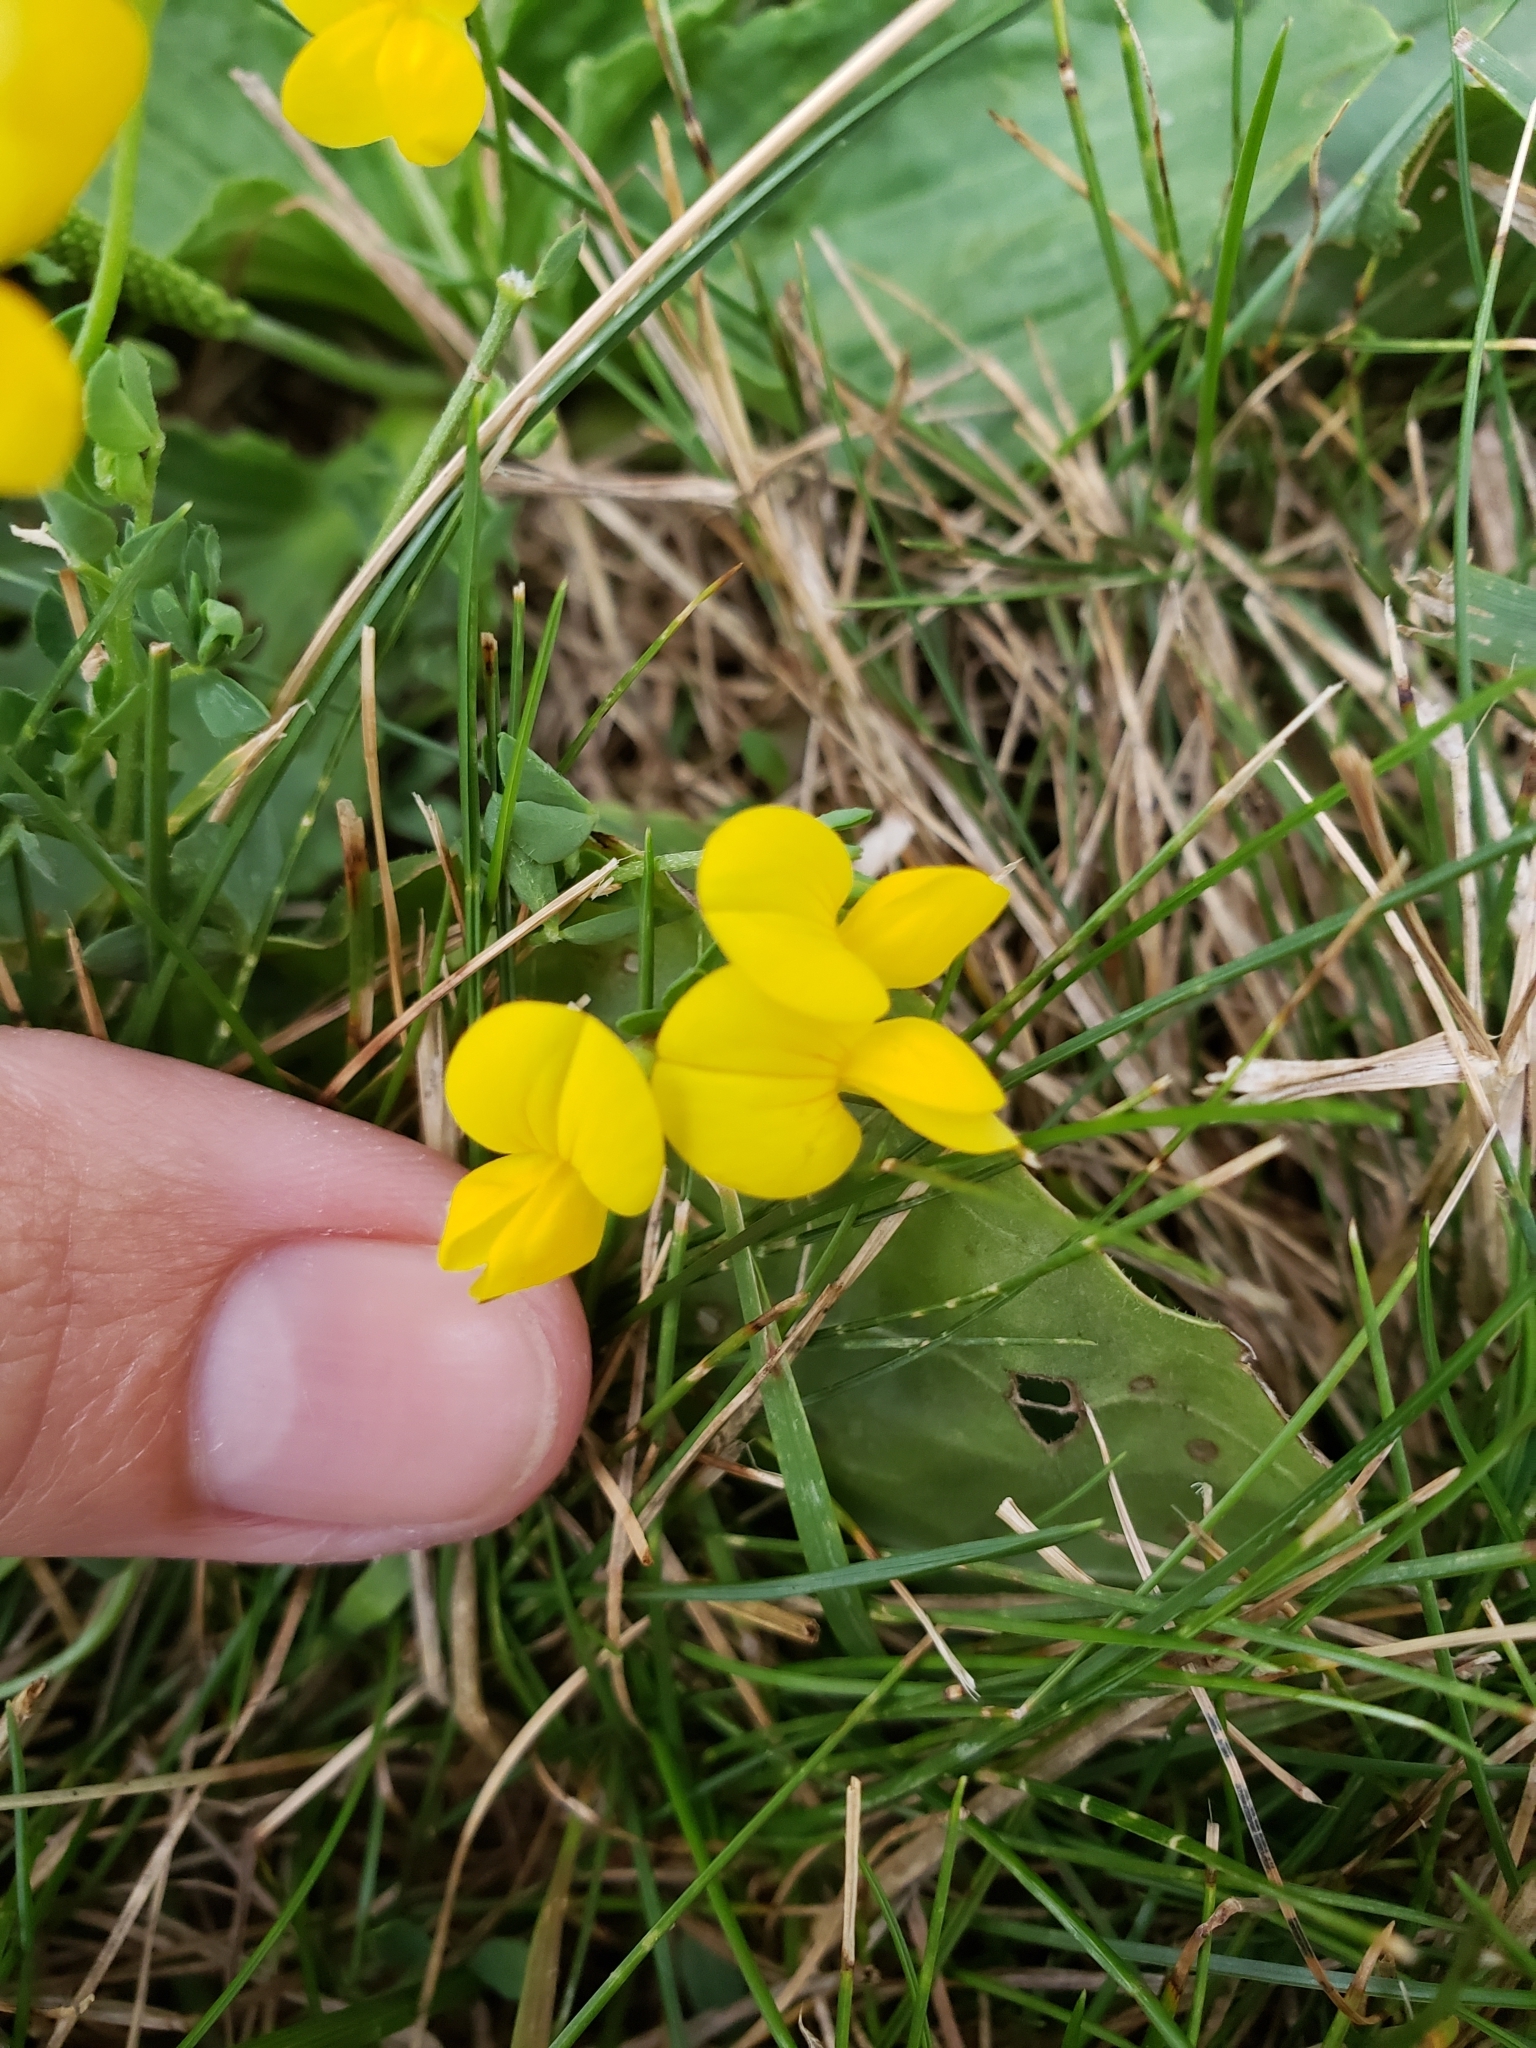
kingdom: Plantae
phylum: Tracheophyta
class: Magnoliopsida
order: Fabales
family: Fabaceae
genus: Lotus
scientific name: Lotus corniculatus
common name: Common bird's-foot-trefoil
